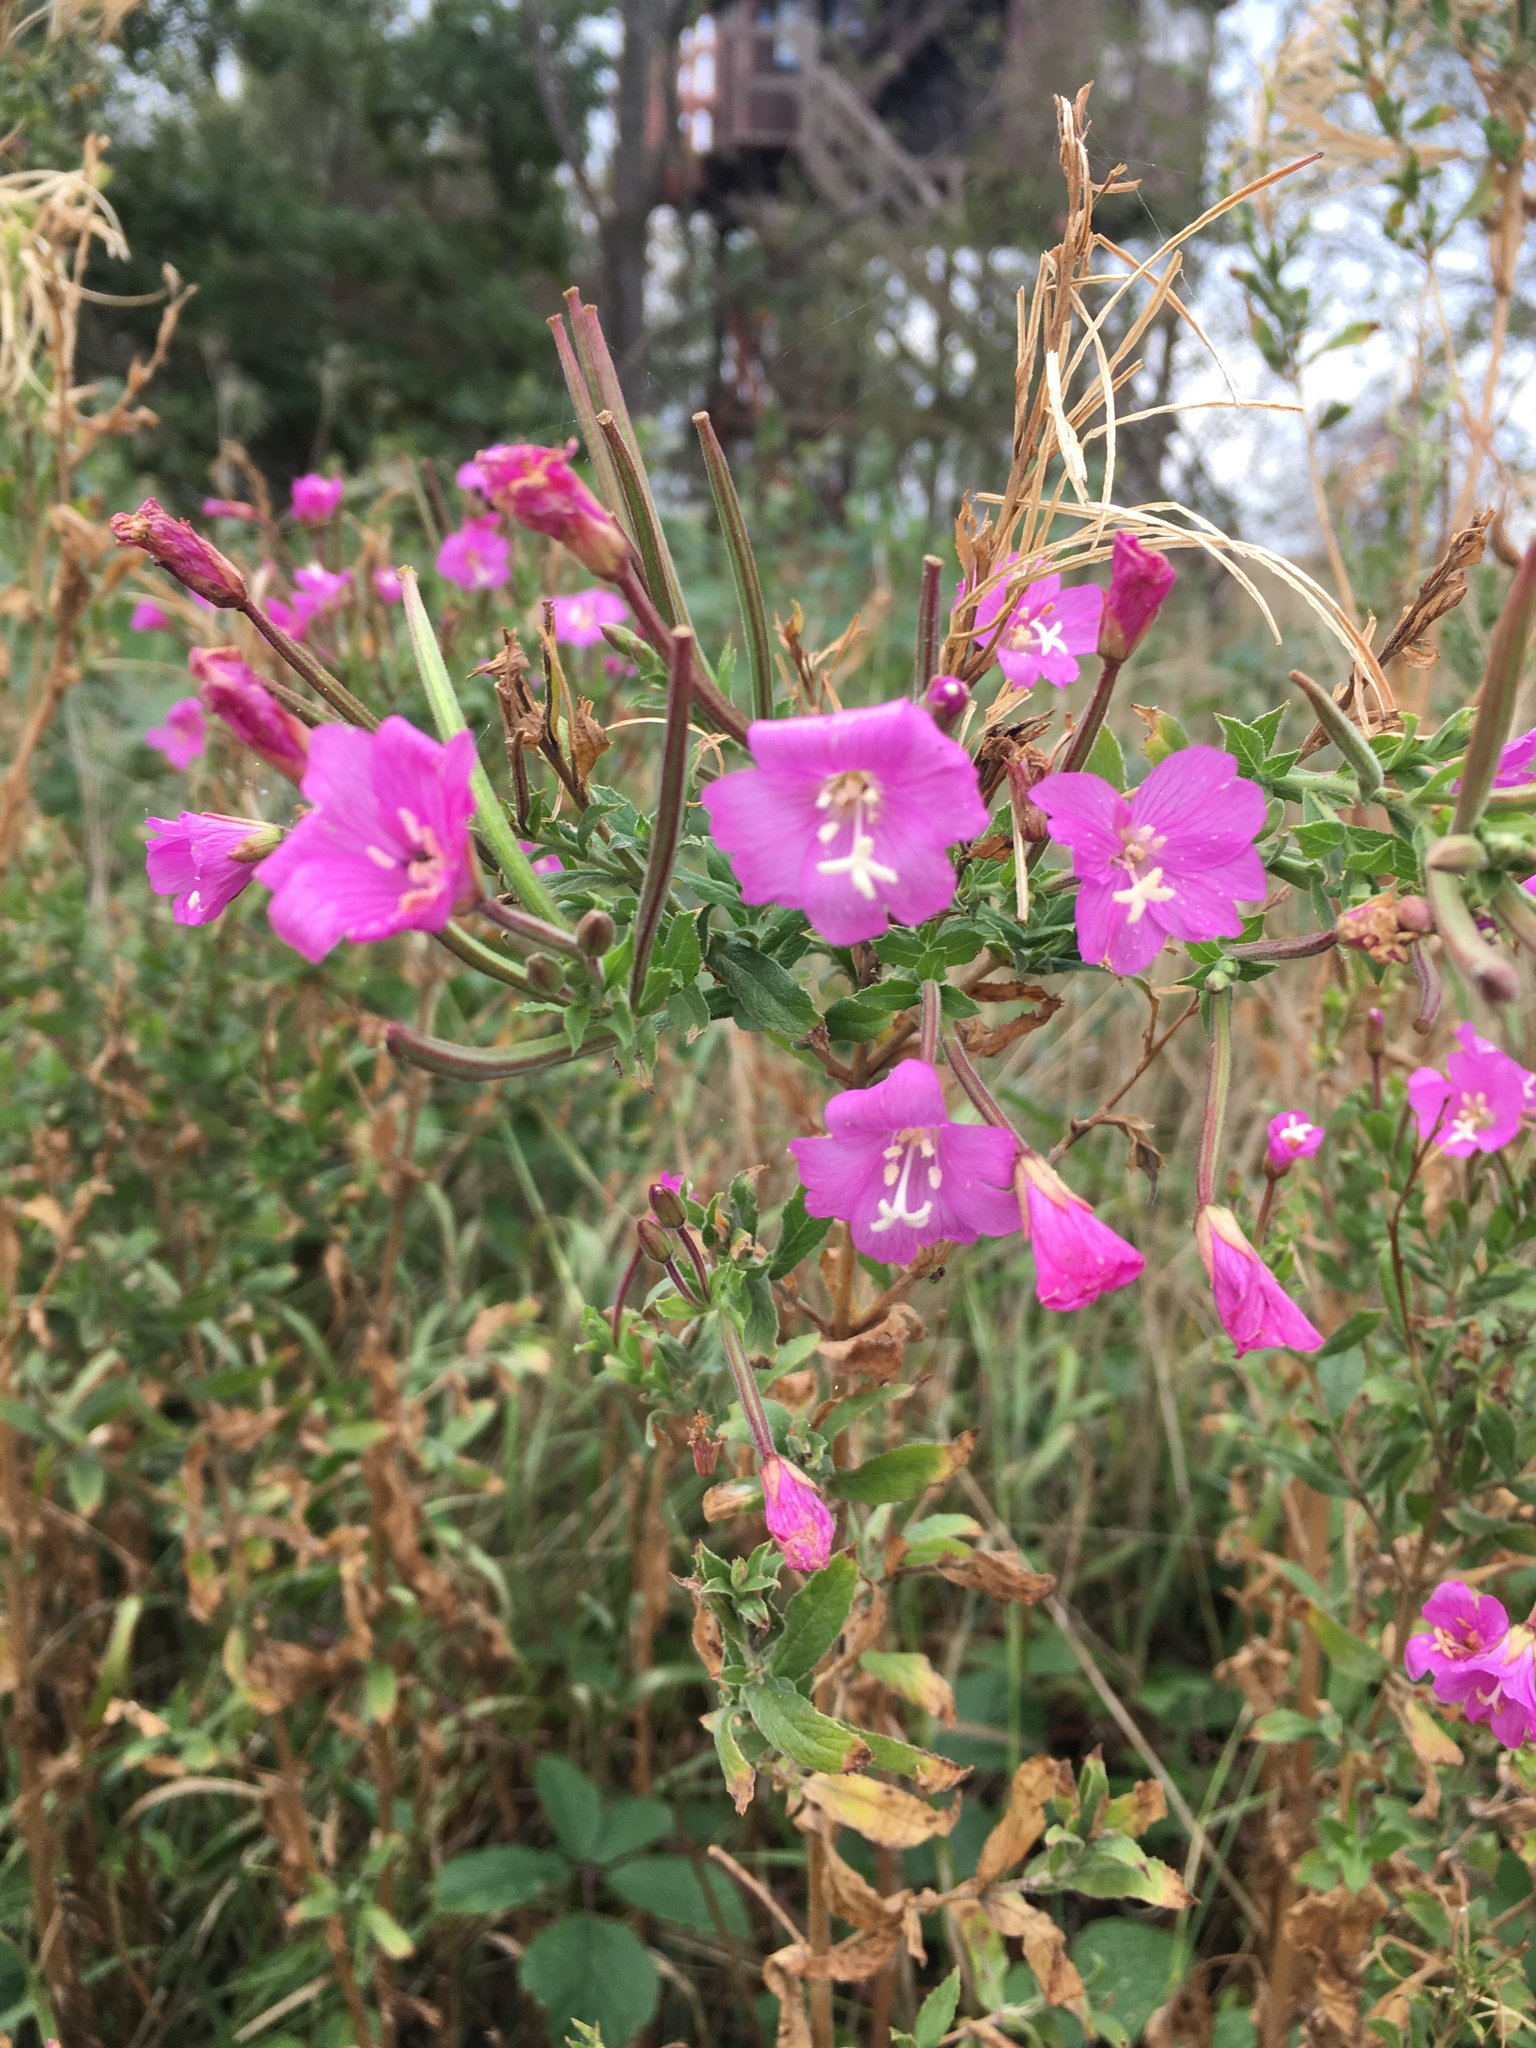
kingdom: Plantae
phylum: Tracheophyta
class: Magnoliopsida
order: Myrtales
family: Onagraceae
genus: Epilobium
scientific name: Epilobium hirsutum
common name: Great willowherb
